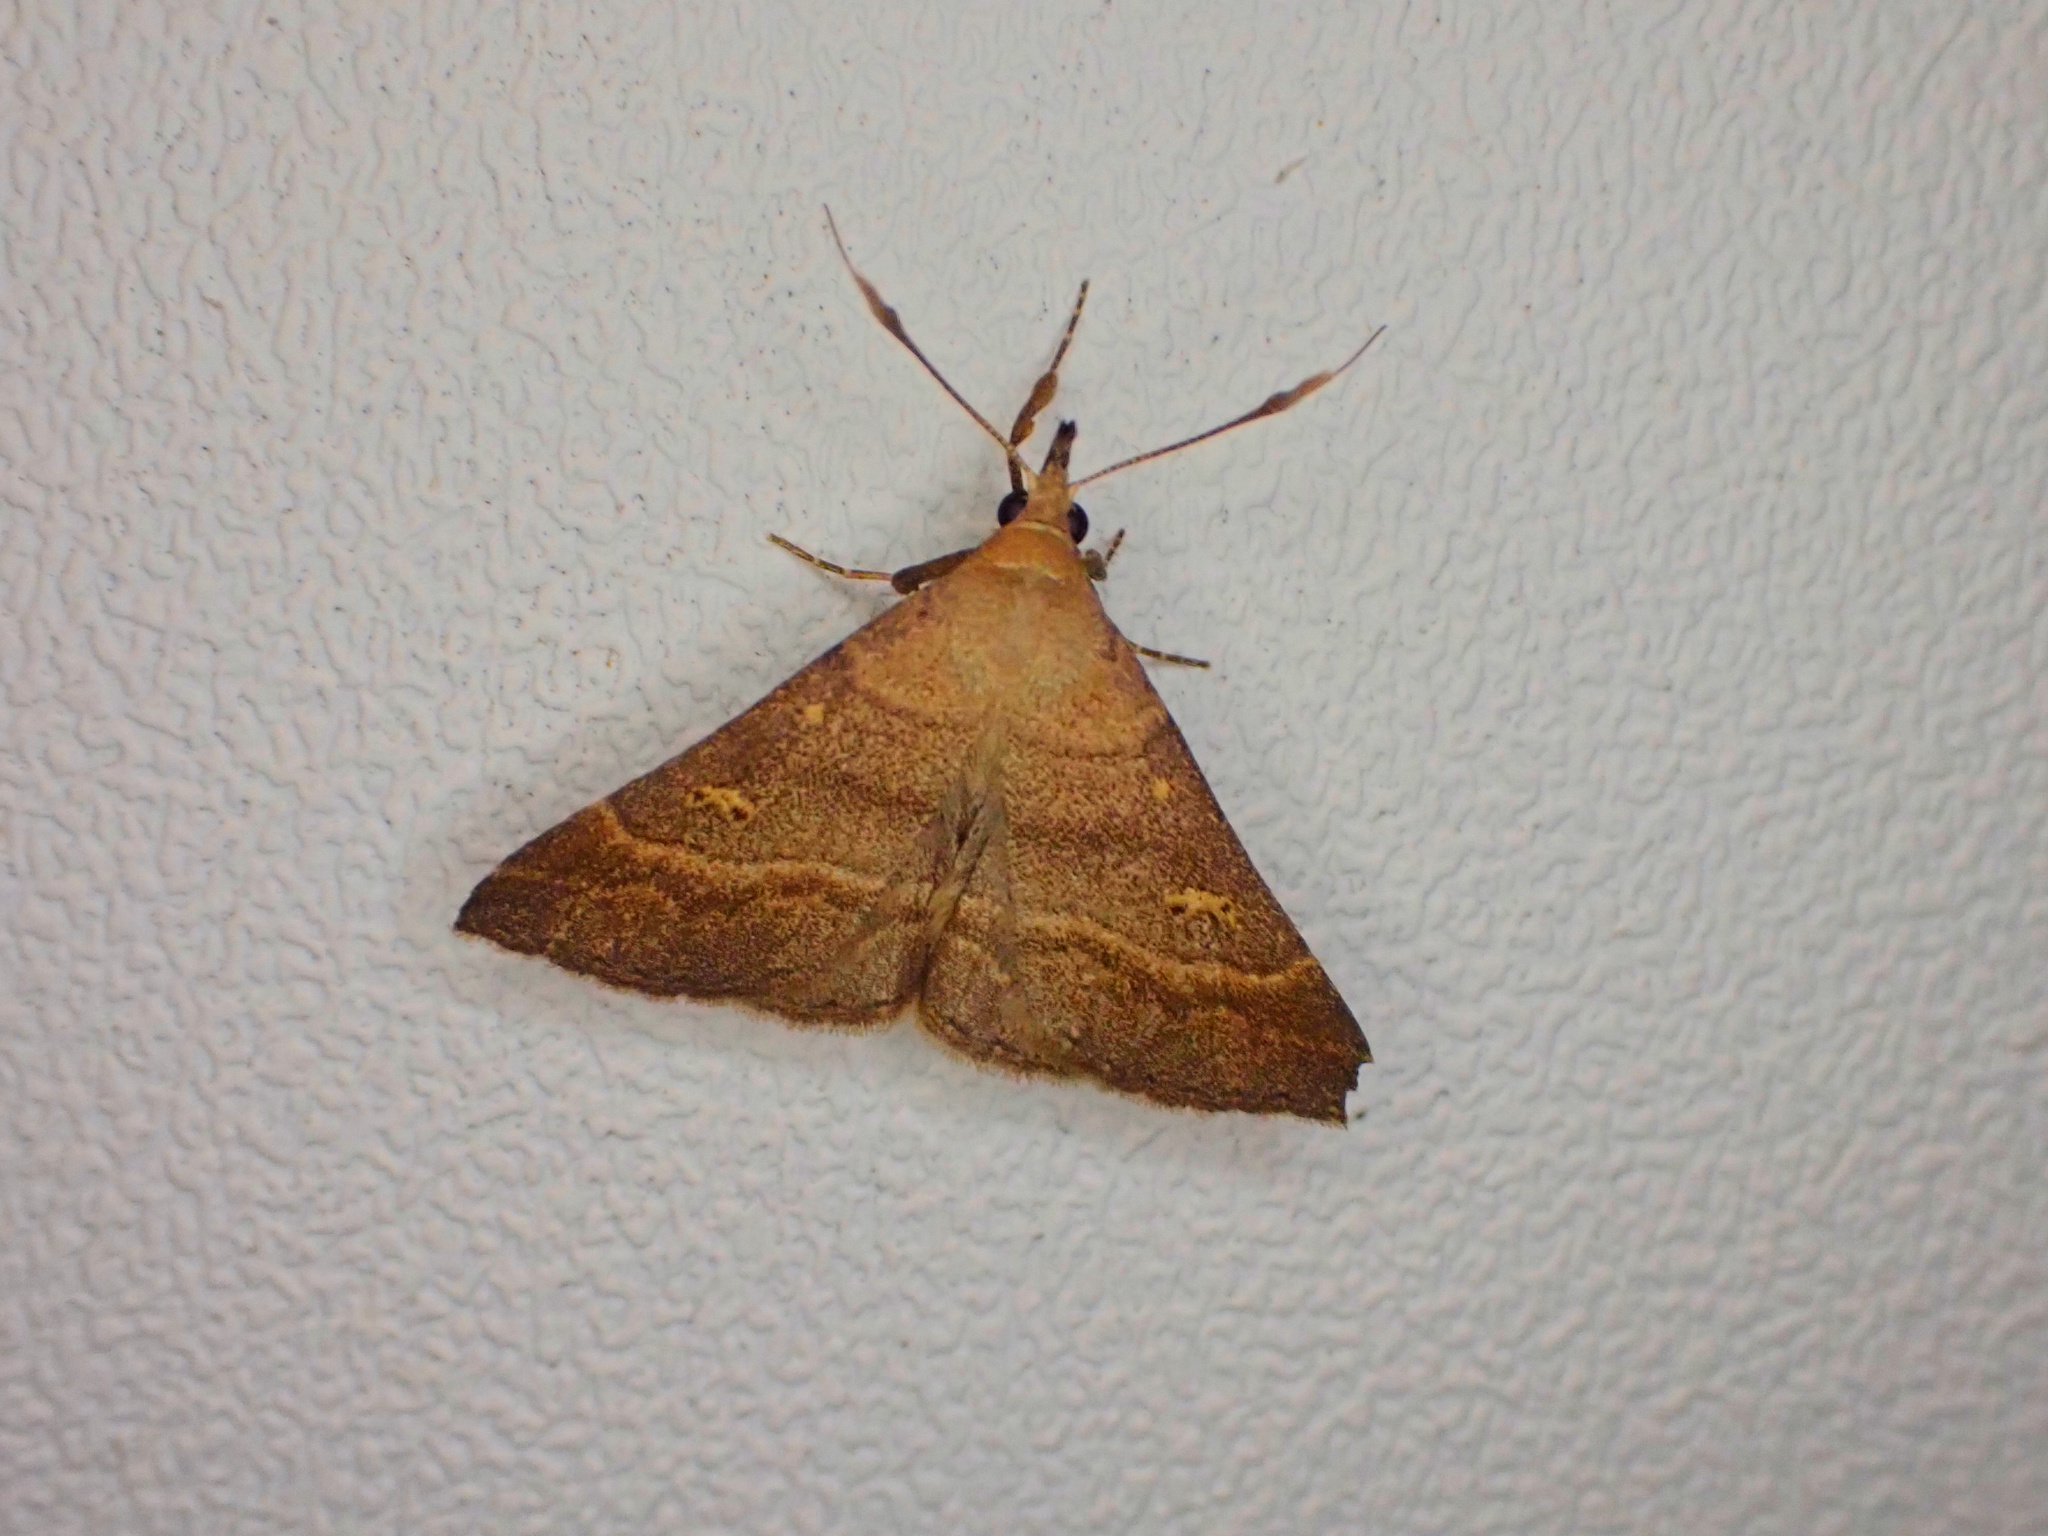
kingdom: Animalia
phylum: Arthropoda
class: Insecta
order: Lepidoptera
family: Erebidae
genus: Renia
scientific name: Renia flavipunctalis
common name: Yellow-spotted renia moth
